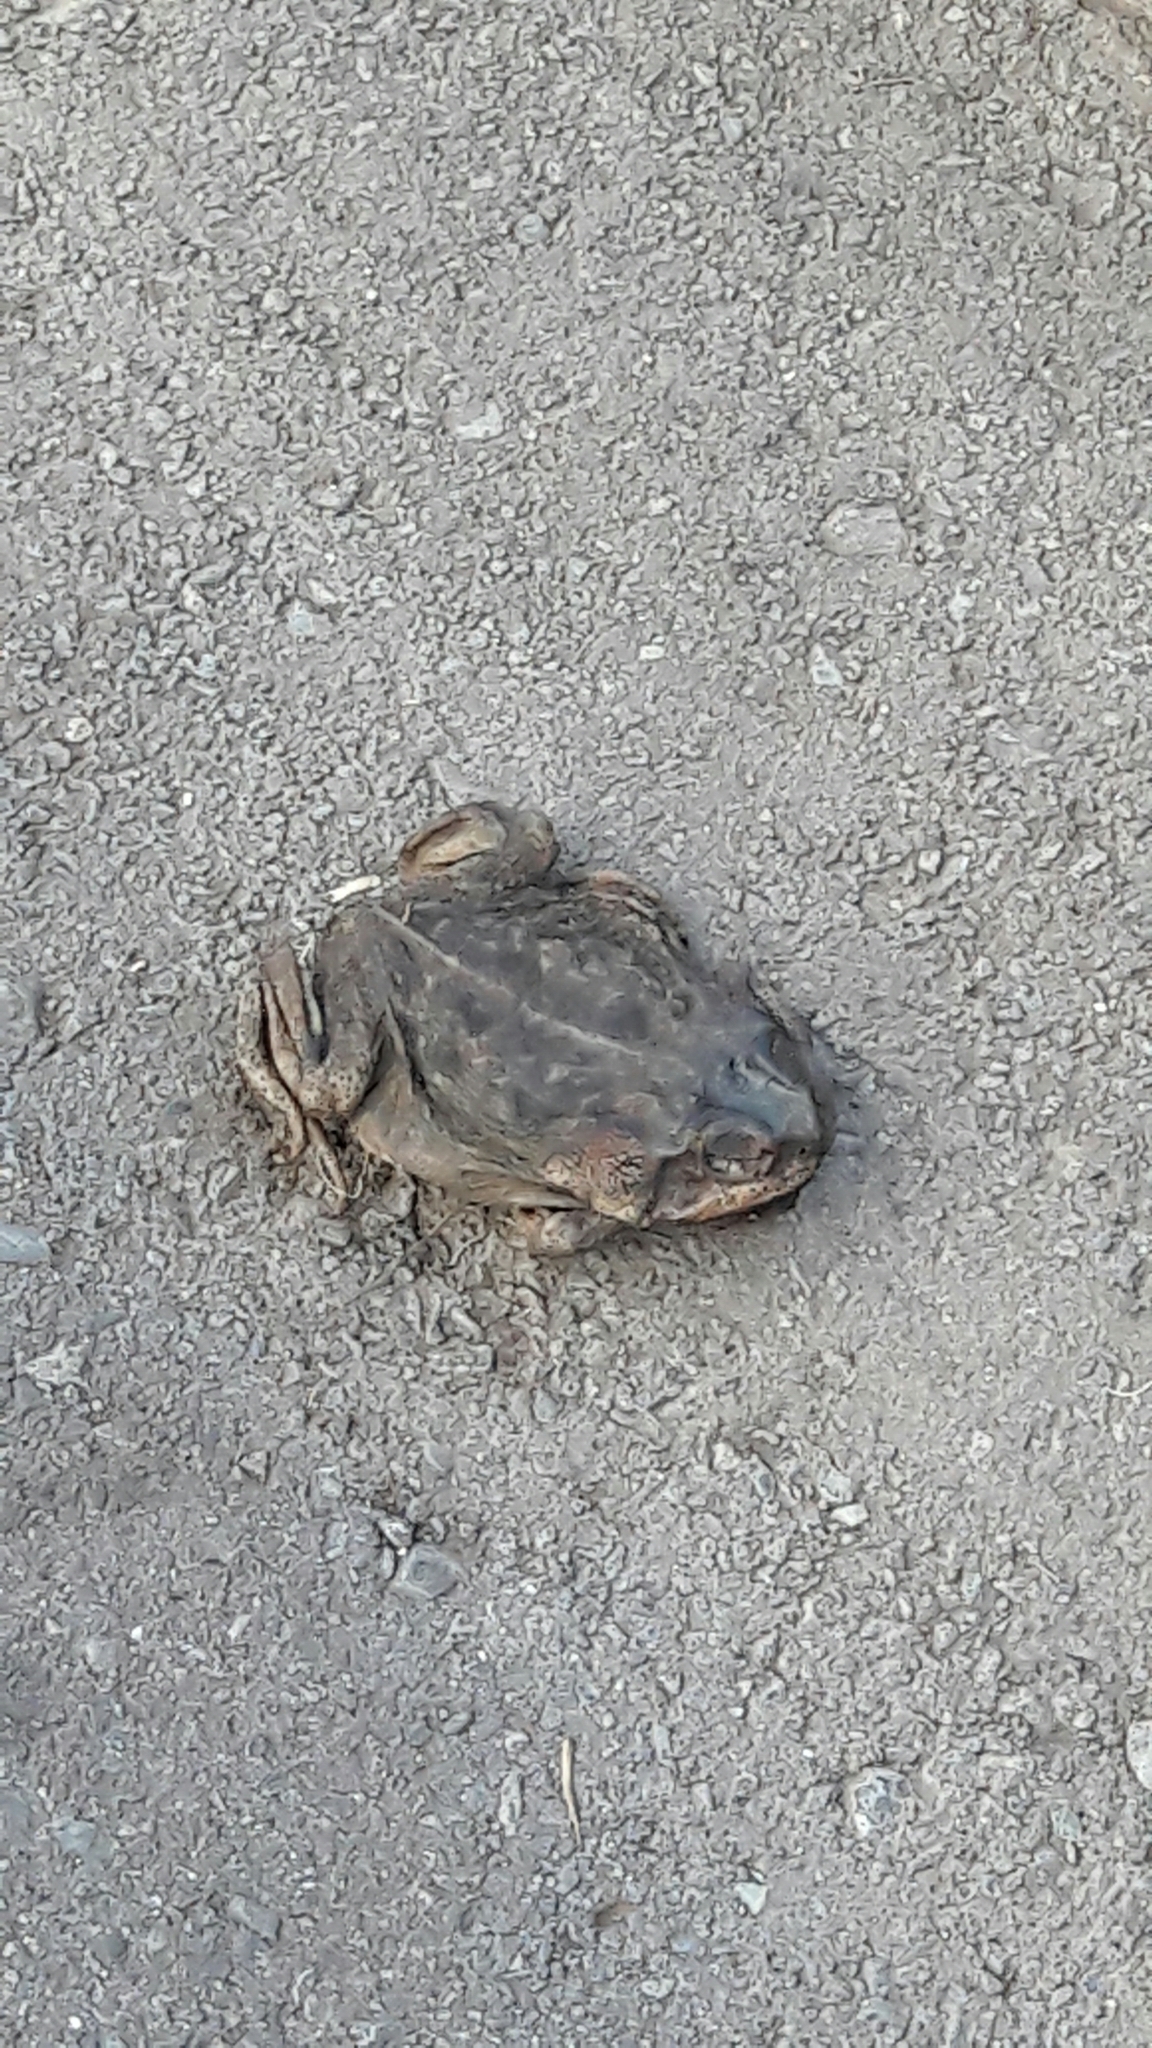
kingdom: Animalia
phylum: Chordata
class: Amphibia
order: Anura
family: Bufonidae
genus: Rhinella
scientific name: Rhinella rubescens
